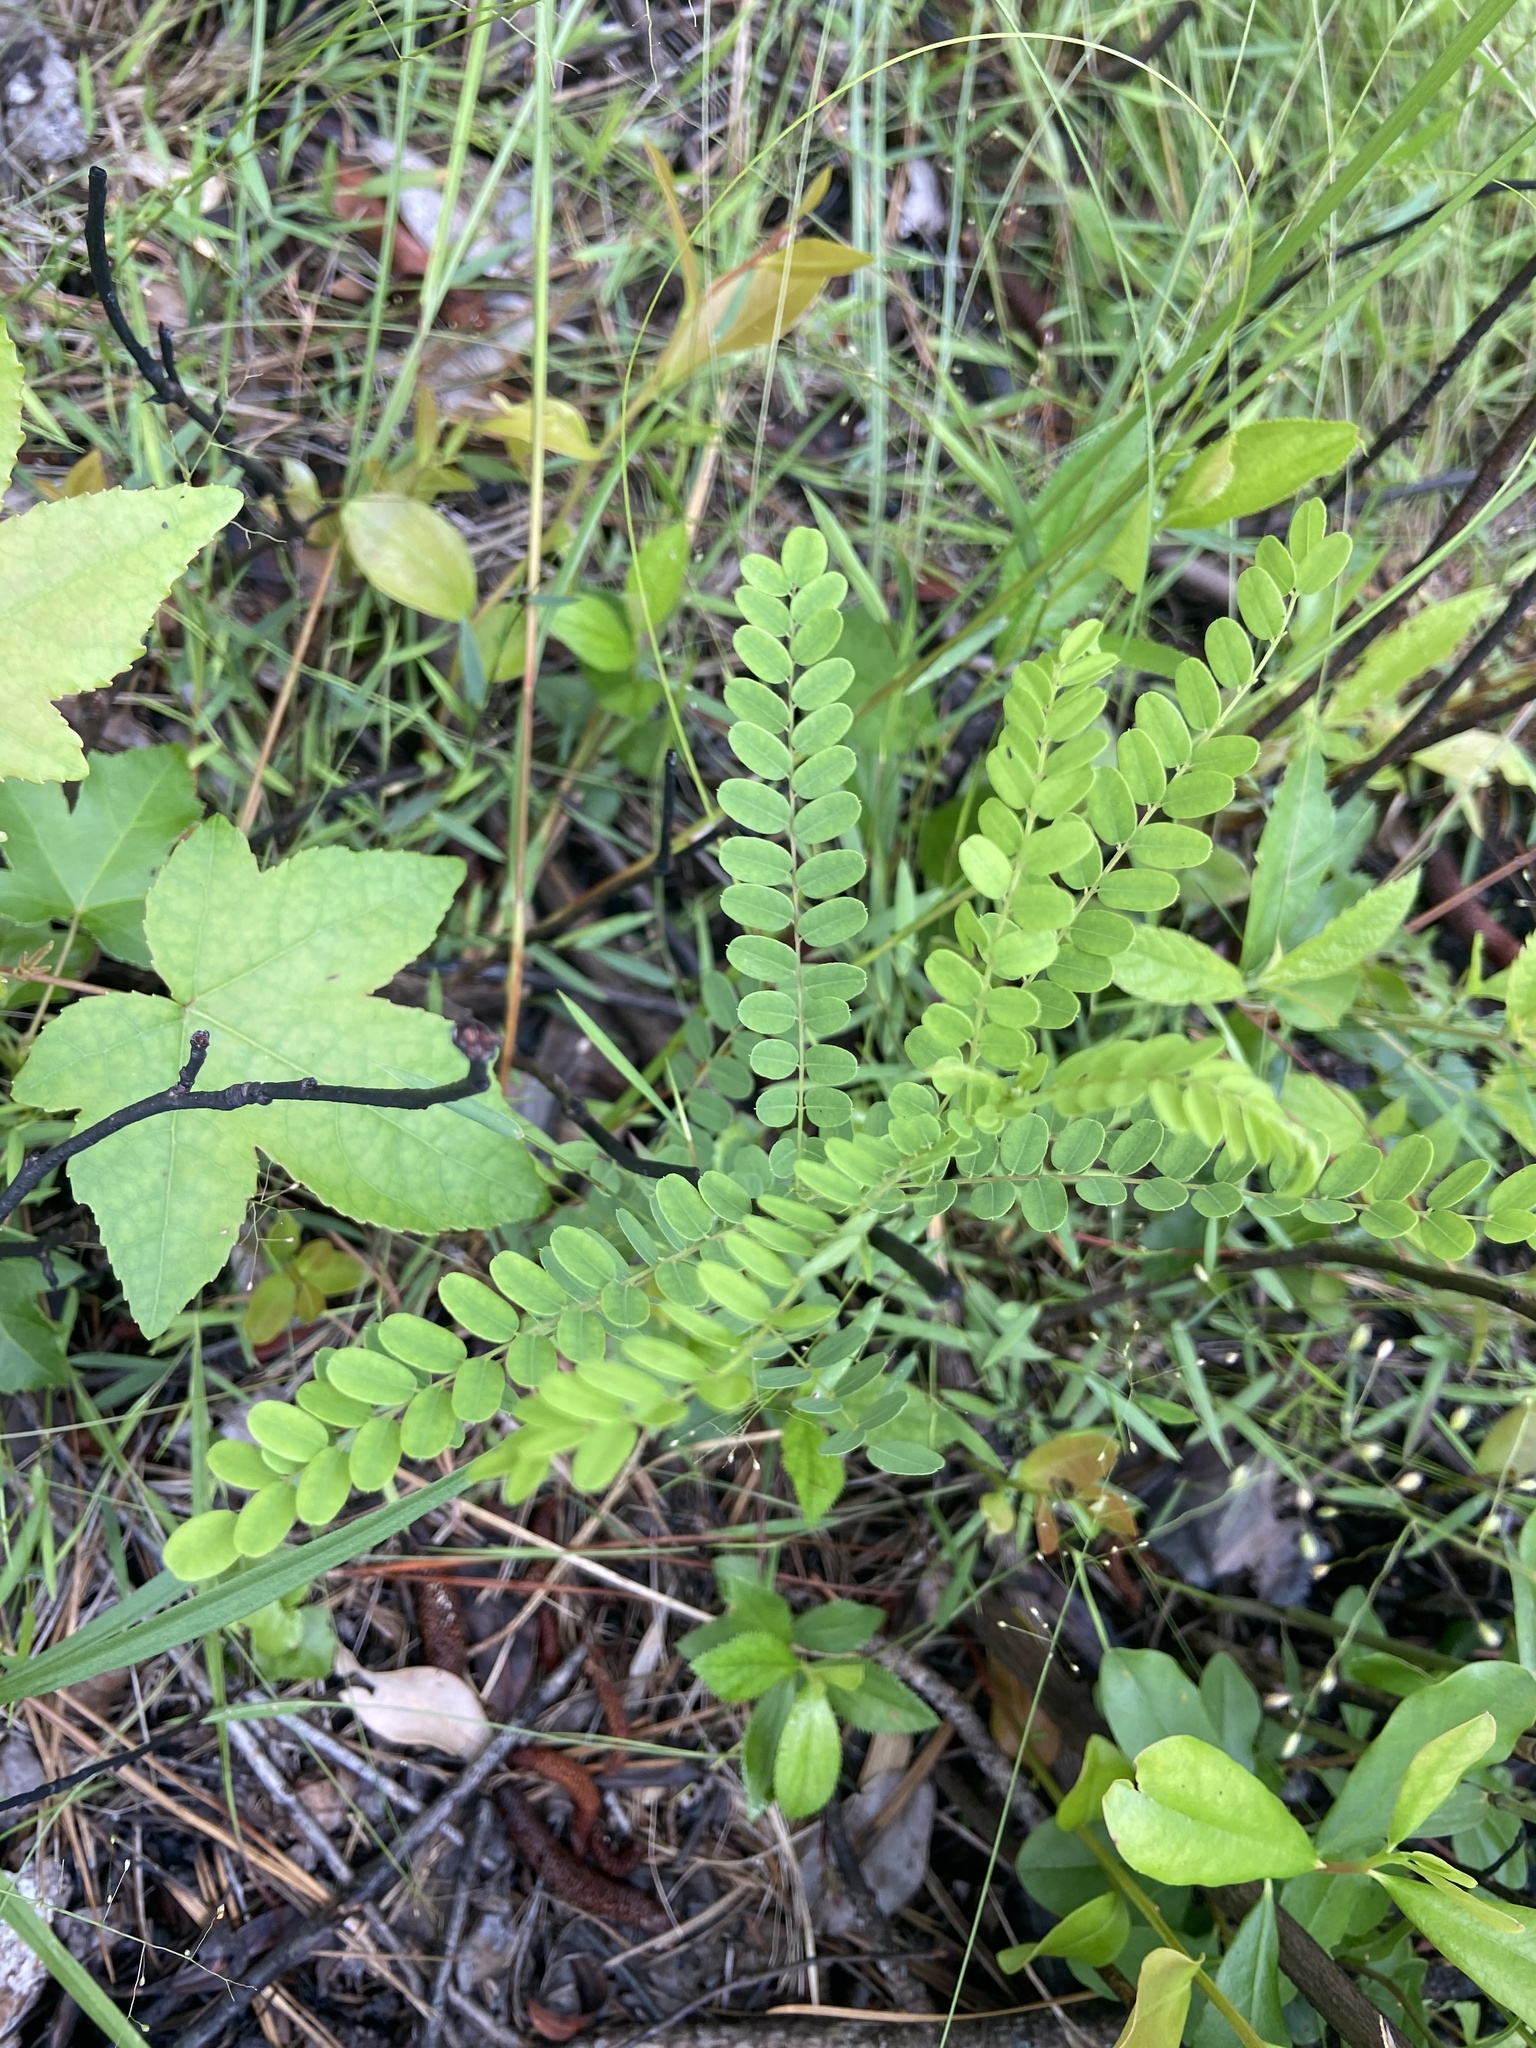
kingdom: Plantae
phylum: Tracheophyta
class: Magnoliopsida
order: Fabales
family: Fabaceae
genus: Amorpha
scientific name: Amorpha georgiana
